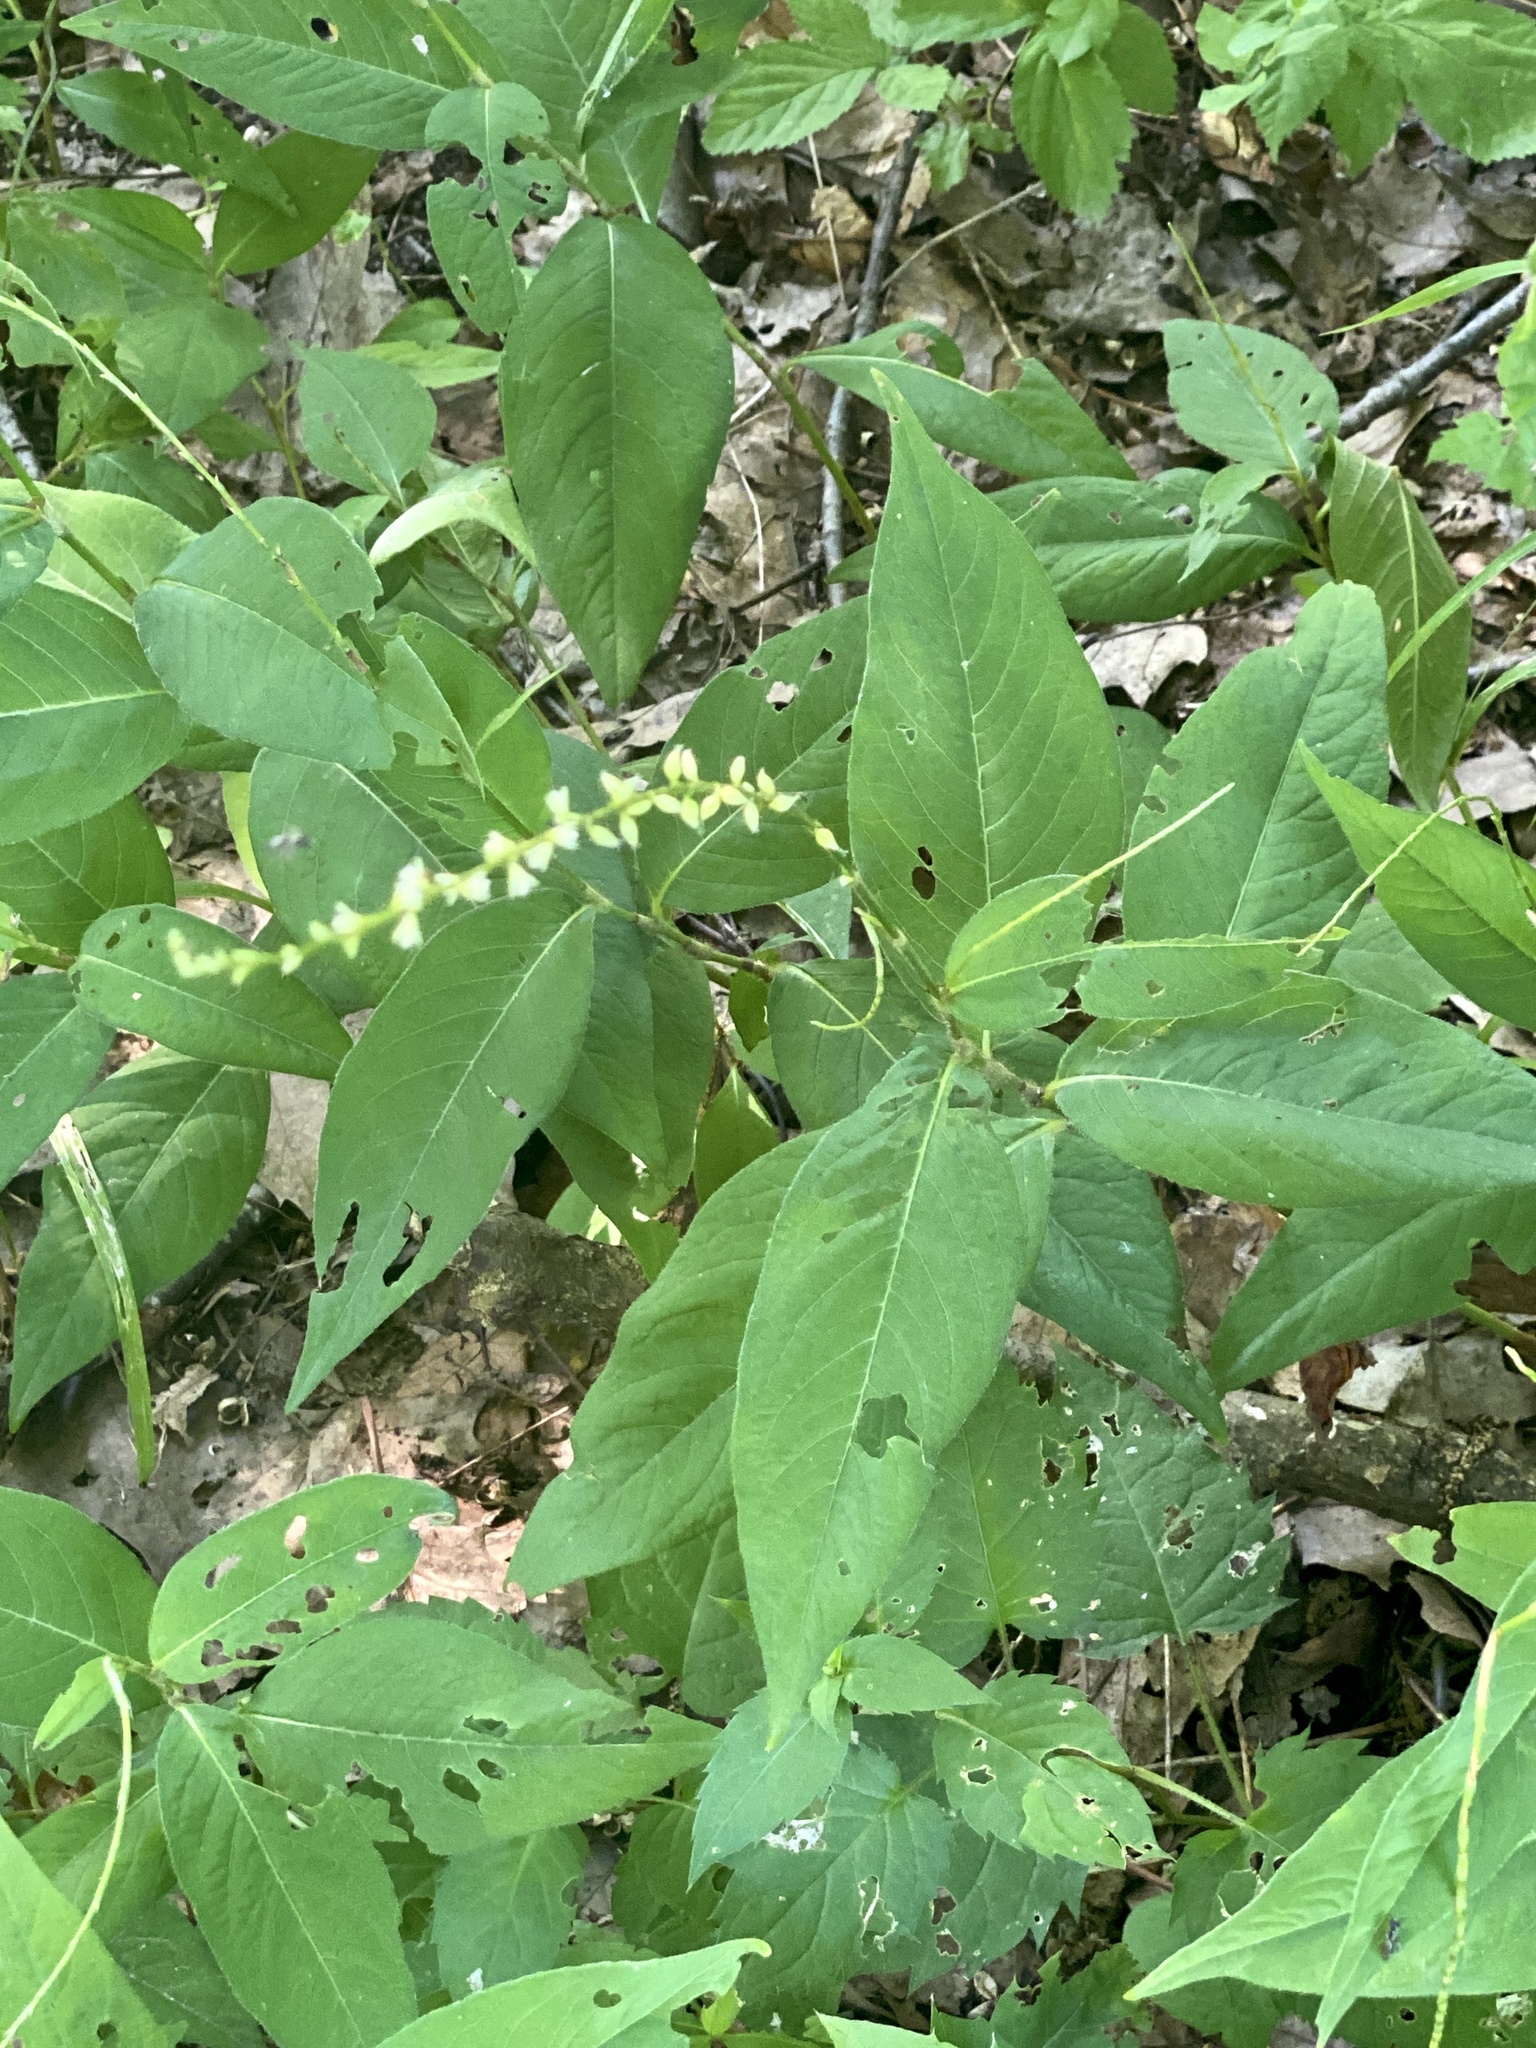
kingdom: Plantae
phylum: Tracheophyta
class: Magnoliopsida
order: Caryophyllales
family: Polygonaceae
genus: Persicaria
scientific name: Persicaria virginiana
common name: Jumpseed
